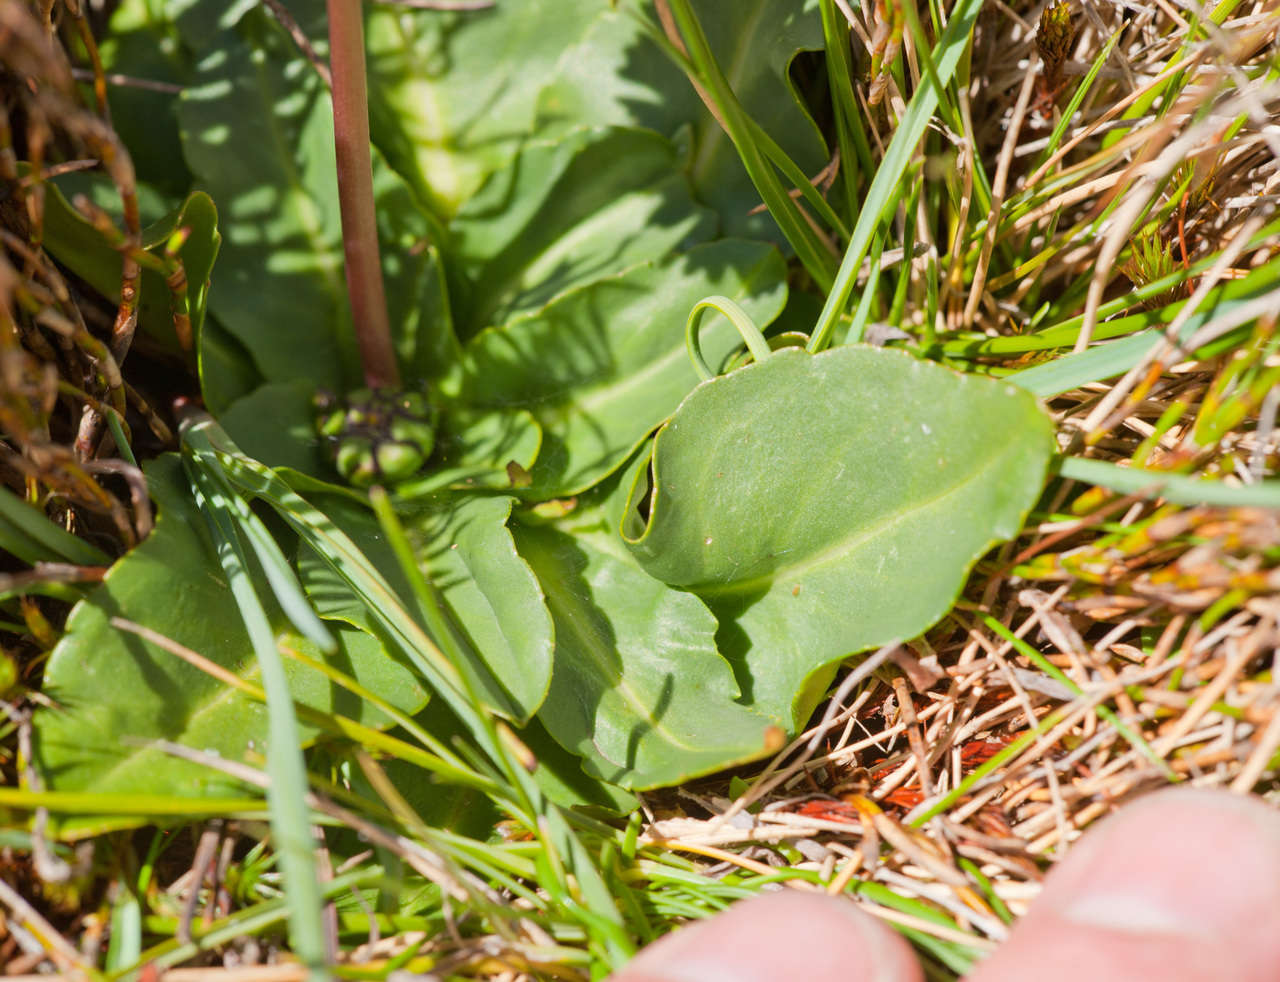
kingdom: Plantae
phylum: Tracheophyta
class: Magnoliopsida
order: Asterales
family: Asteraceae
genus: Brachyscome
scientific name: Brachyscome decipiens
